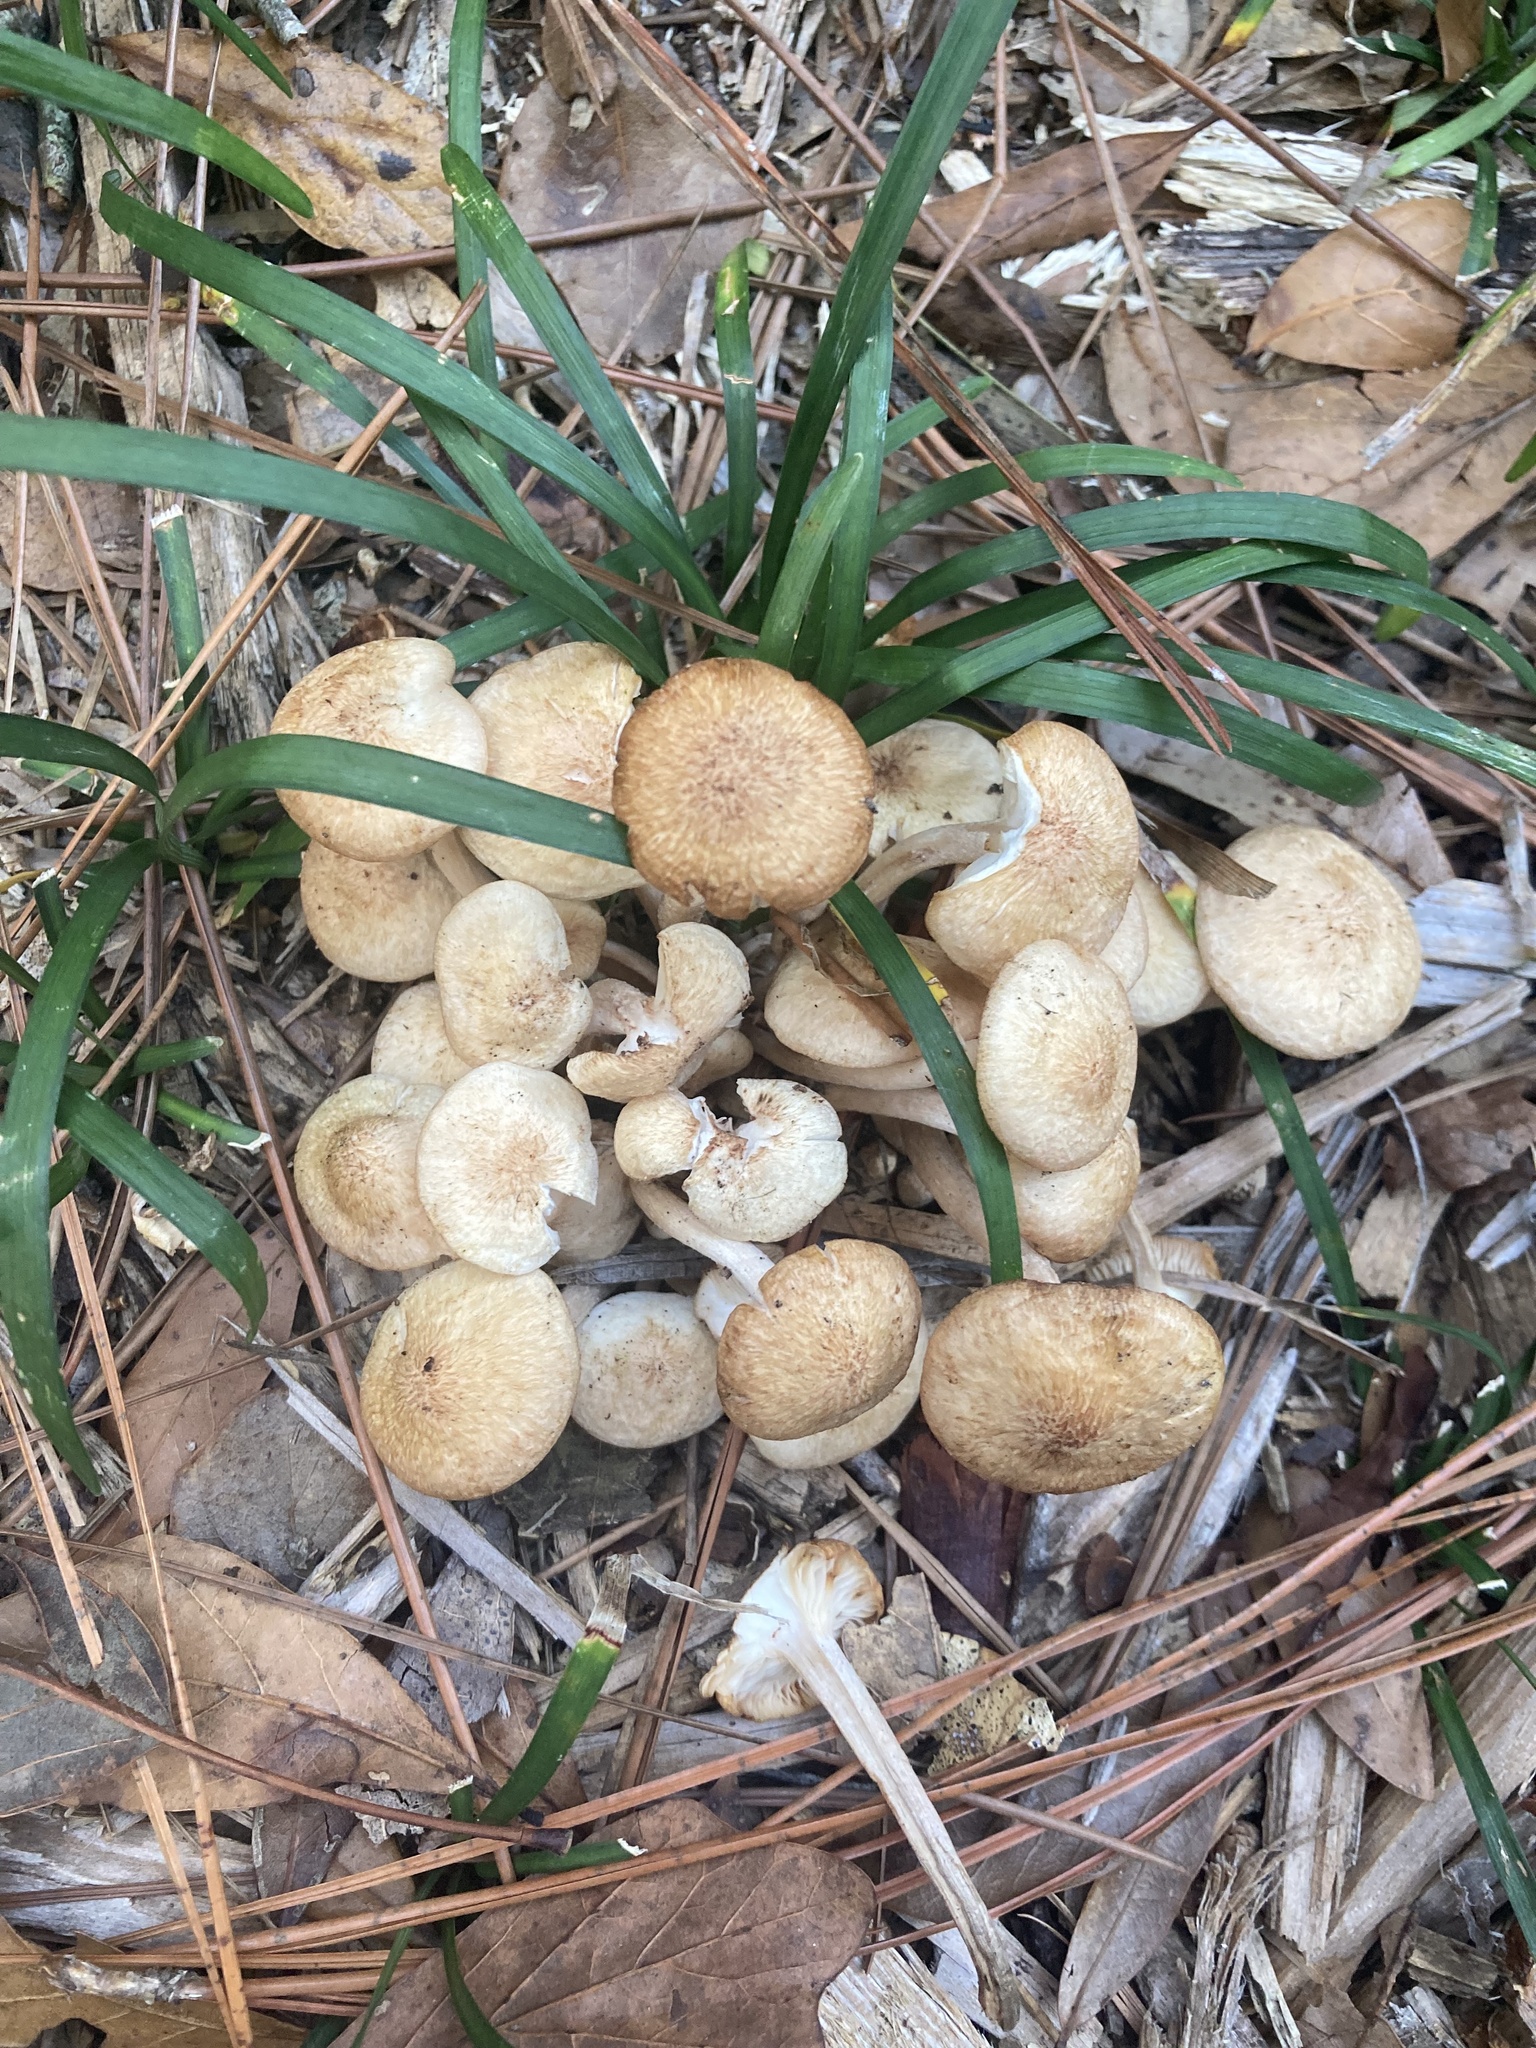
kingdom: Fungi
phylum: Basidiomycota
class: Agaricomycetes
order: Agaricales
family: Physalacriaceae
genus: Desarmillaria
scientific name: Desarmillaria caespitosa
